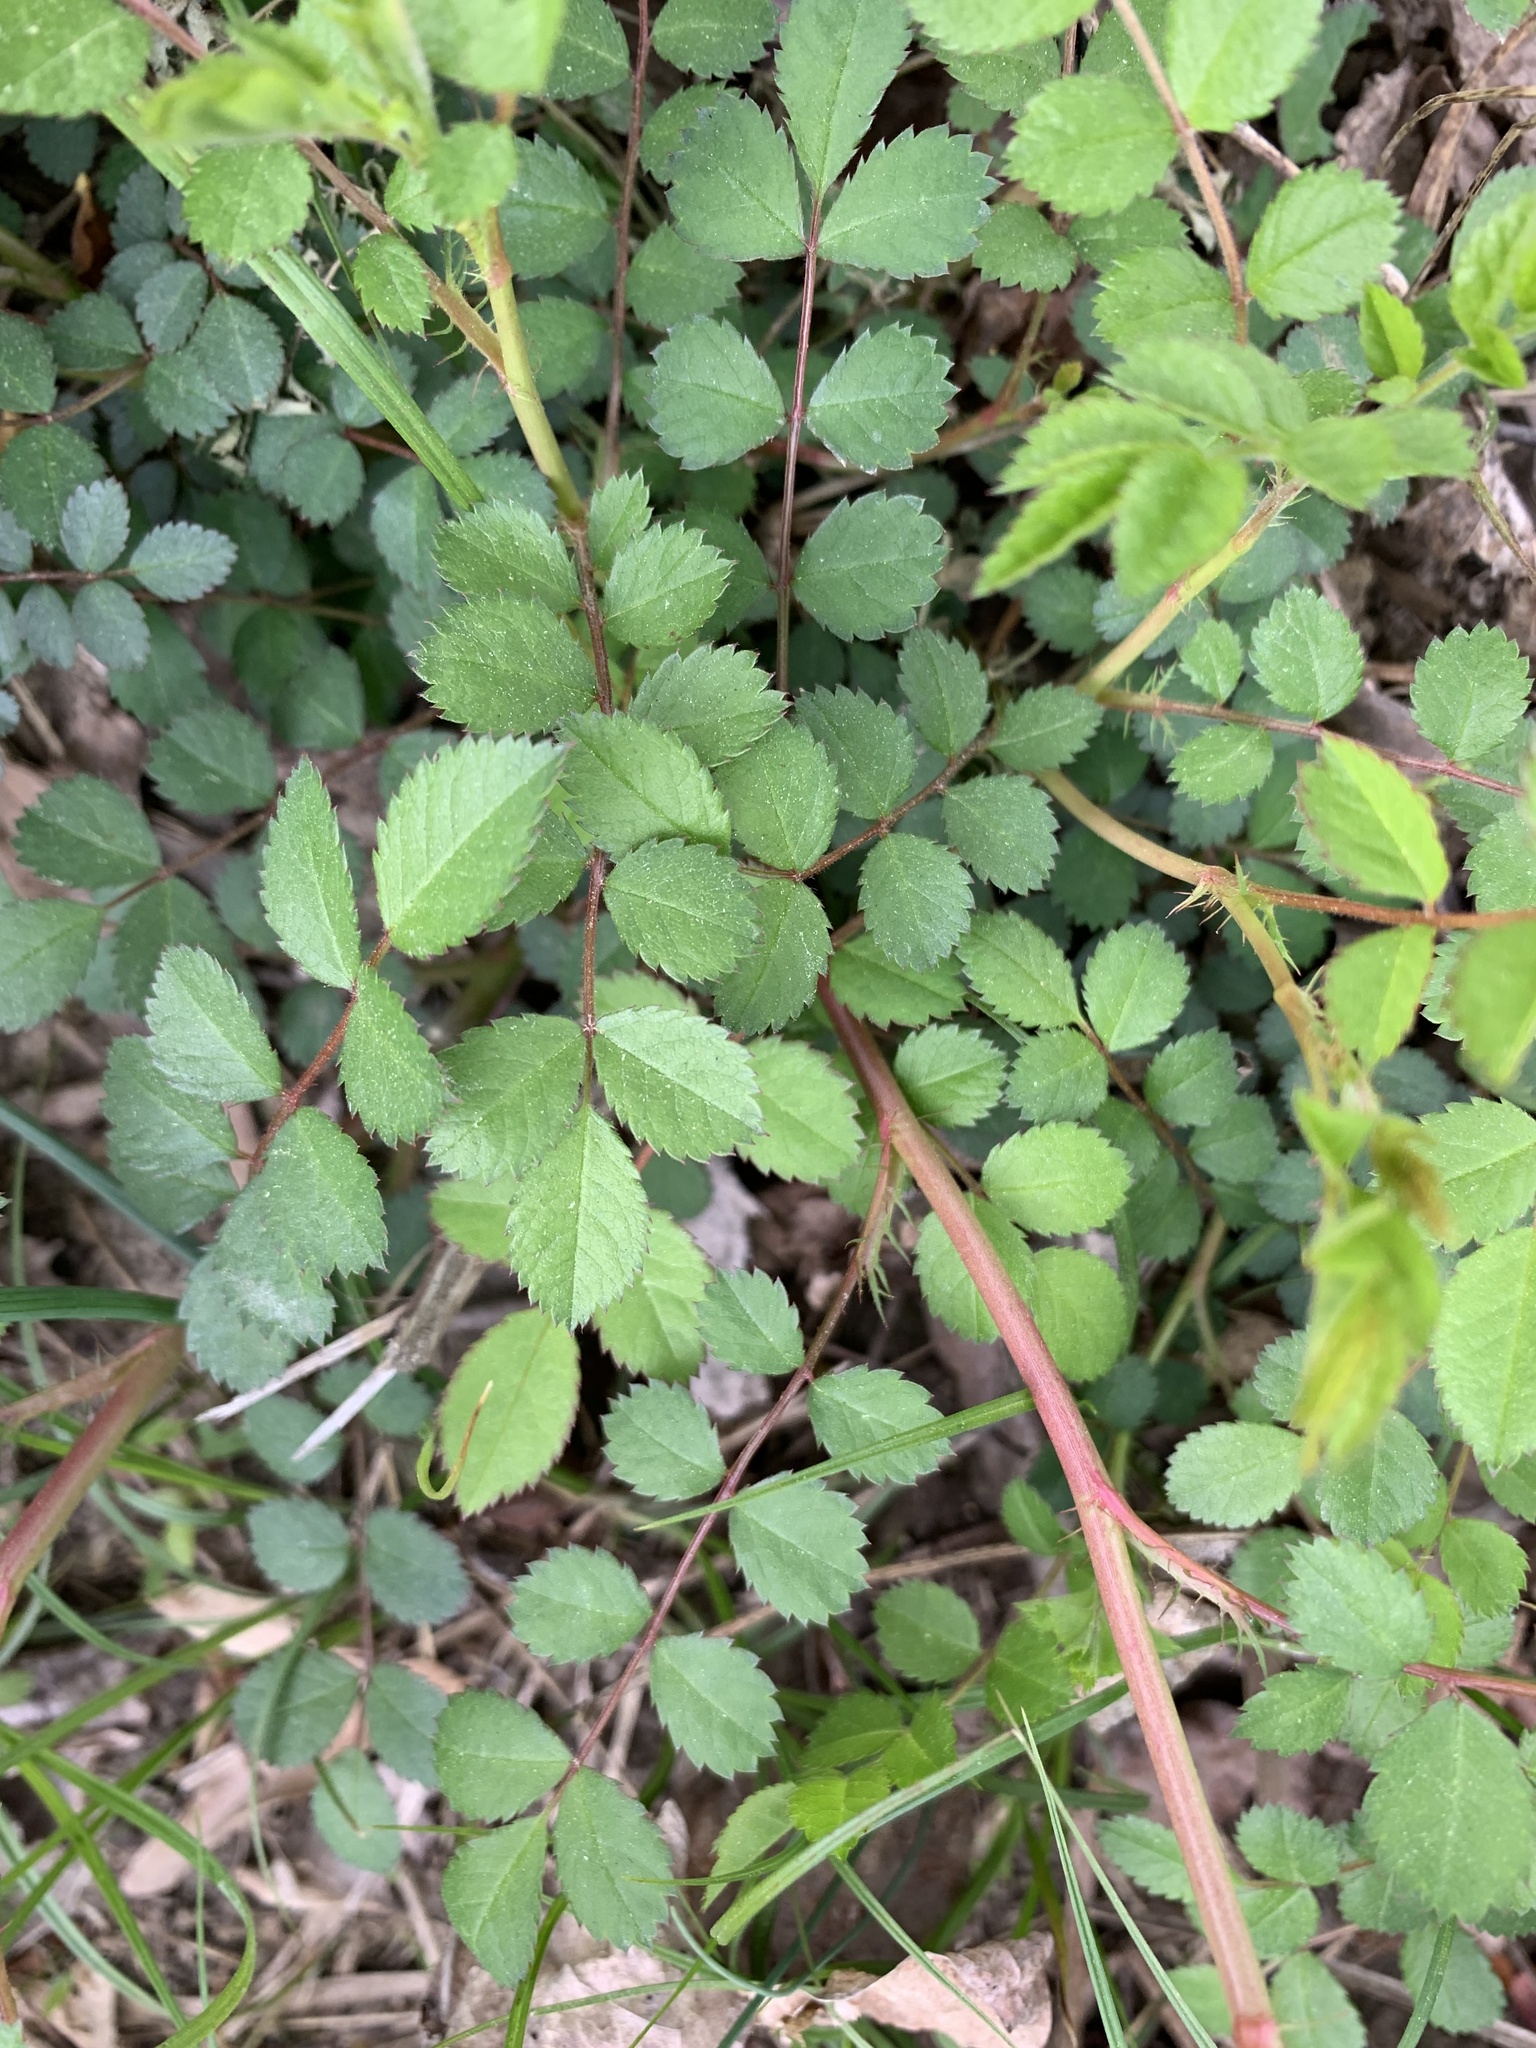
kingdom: Plantae
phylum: Tracheophyta
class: Magnoliopsida
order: Rosales
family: Rosaceae
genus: Rosa
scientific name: Rosa multiflora
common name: Multiflora rose
